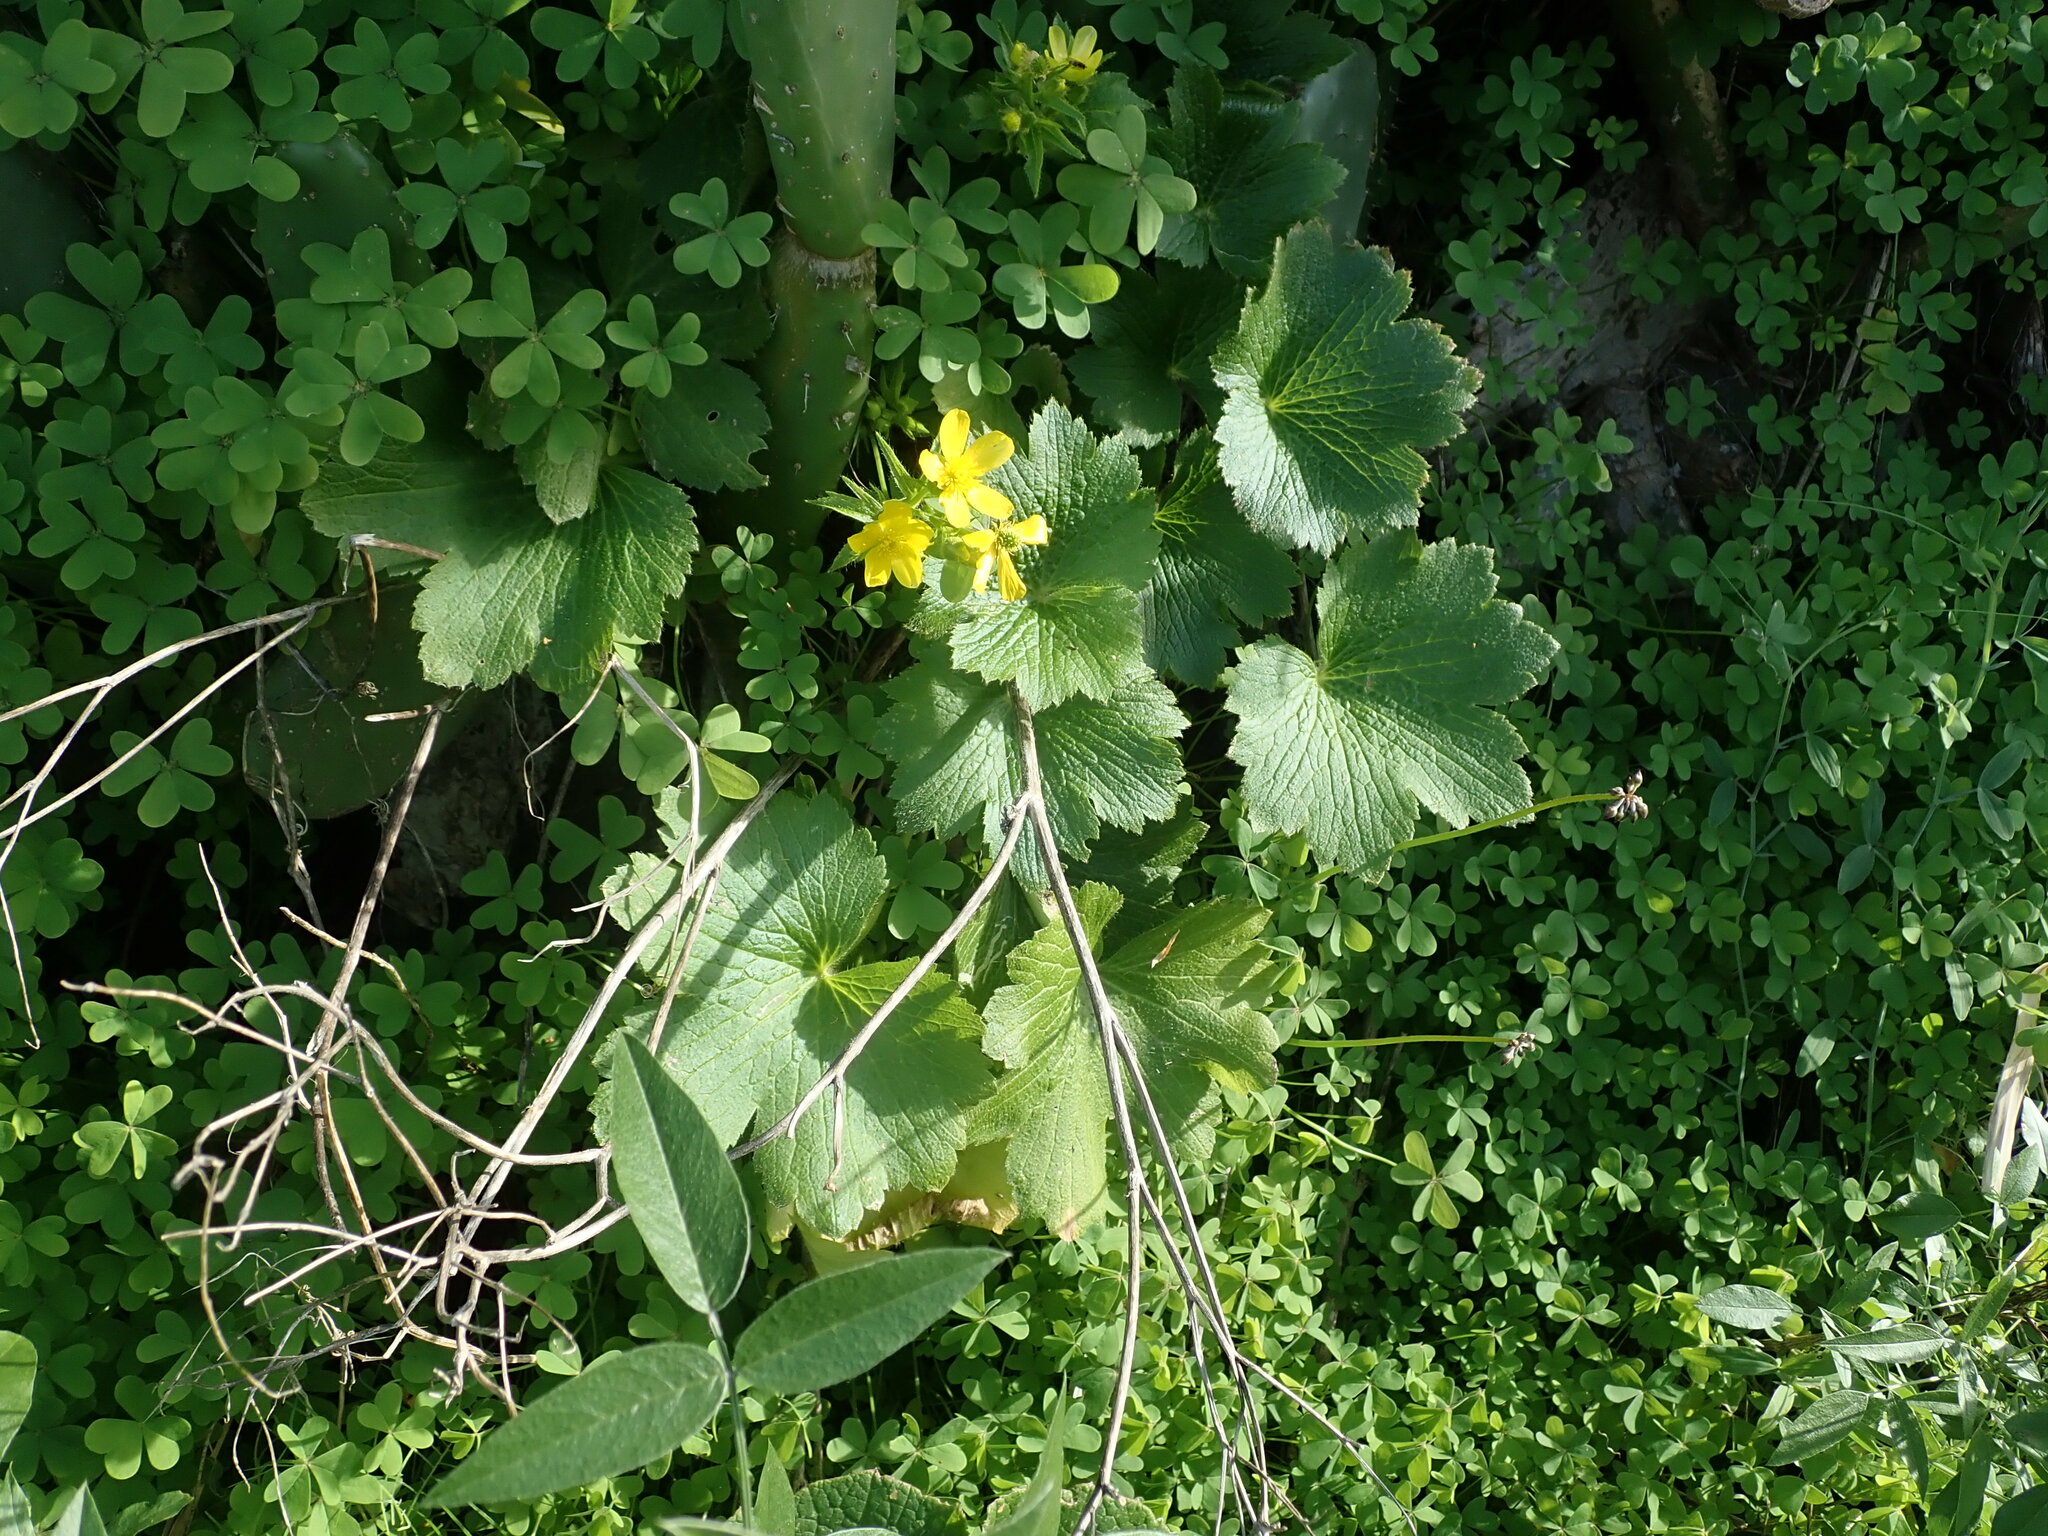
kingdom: Plantae
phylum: Tracheophyta
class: Magnoliopsida
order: Ranunculales
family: Ranunculaceae
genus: Ranunculus
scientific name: Ranunculus cortusifolius
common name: Azores buttercup
